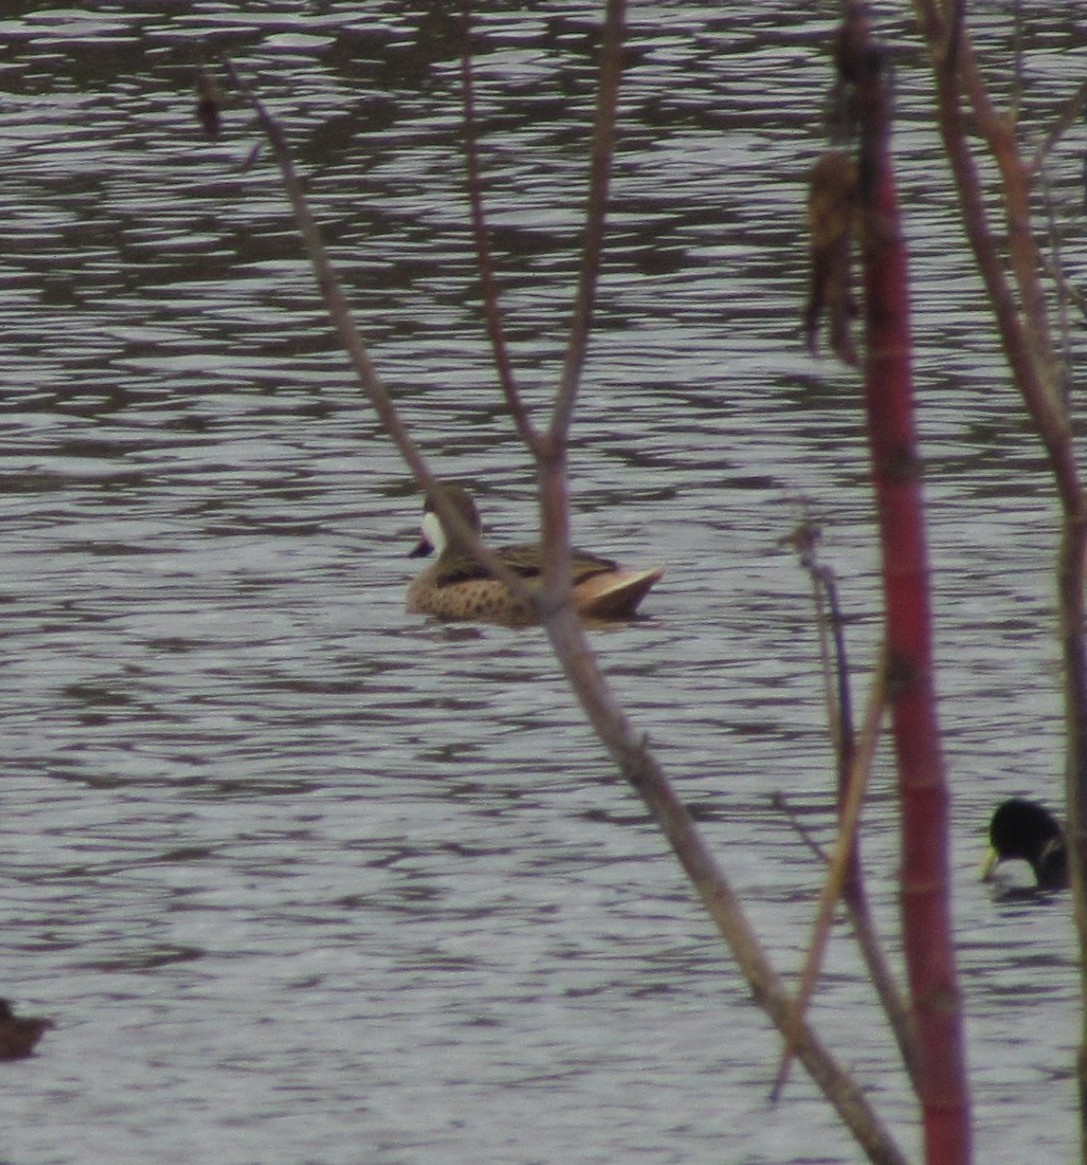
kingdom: Animalia
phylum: Chordata
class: Aves
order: Anseriformes
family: Anatidae
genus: Anas
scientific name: Anas bahamensis
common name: White-cheeked pintail
